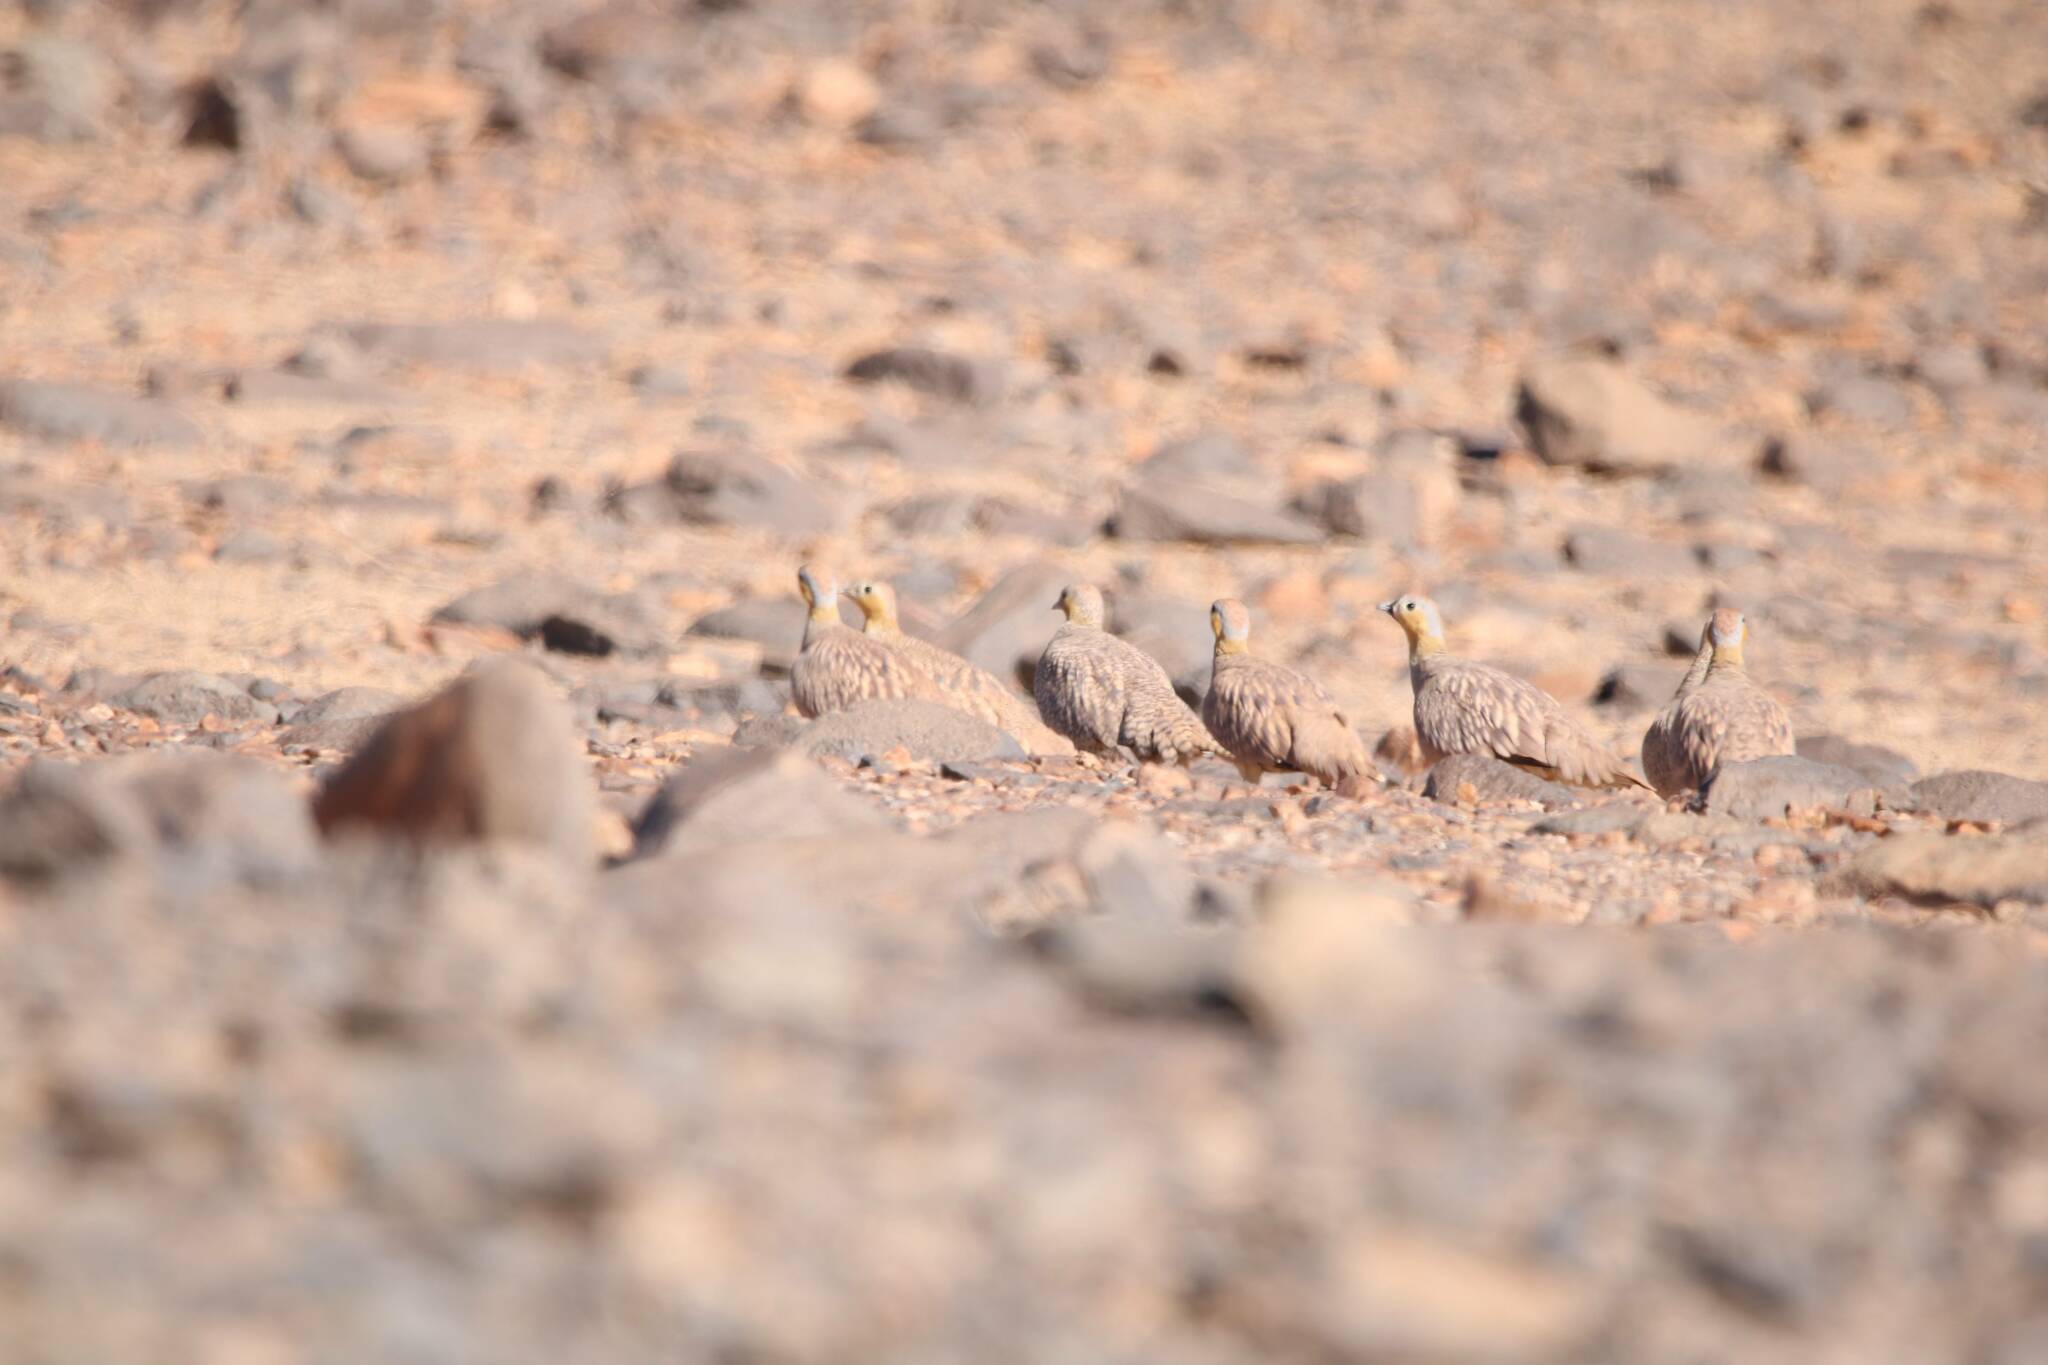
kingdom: Animalia
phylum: Chordata
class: Aves
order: Pteroclidiformes
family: Pteroclididae
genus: Pterocles
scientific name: Pterocles coronatus
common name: Crowned sandgrouse
